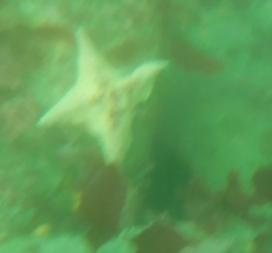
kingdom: Animalia
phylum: Echinodermata
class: Asteroidea
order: Valvatida
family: Asterinidae
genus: Patiria
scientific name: Patiria miniata
